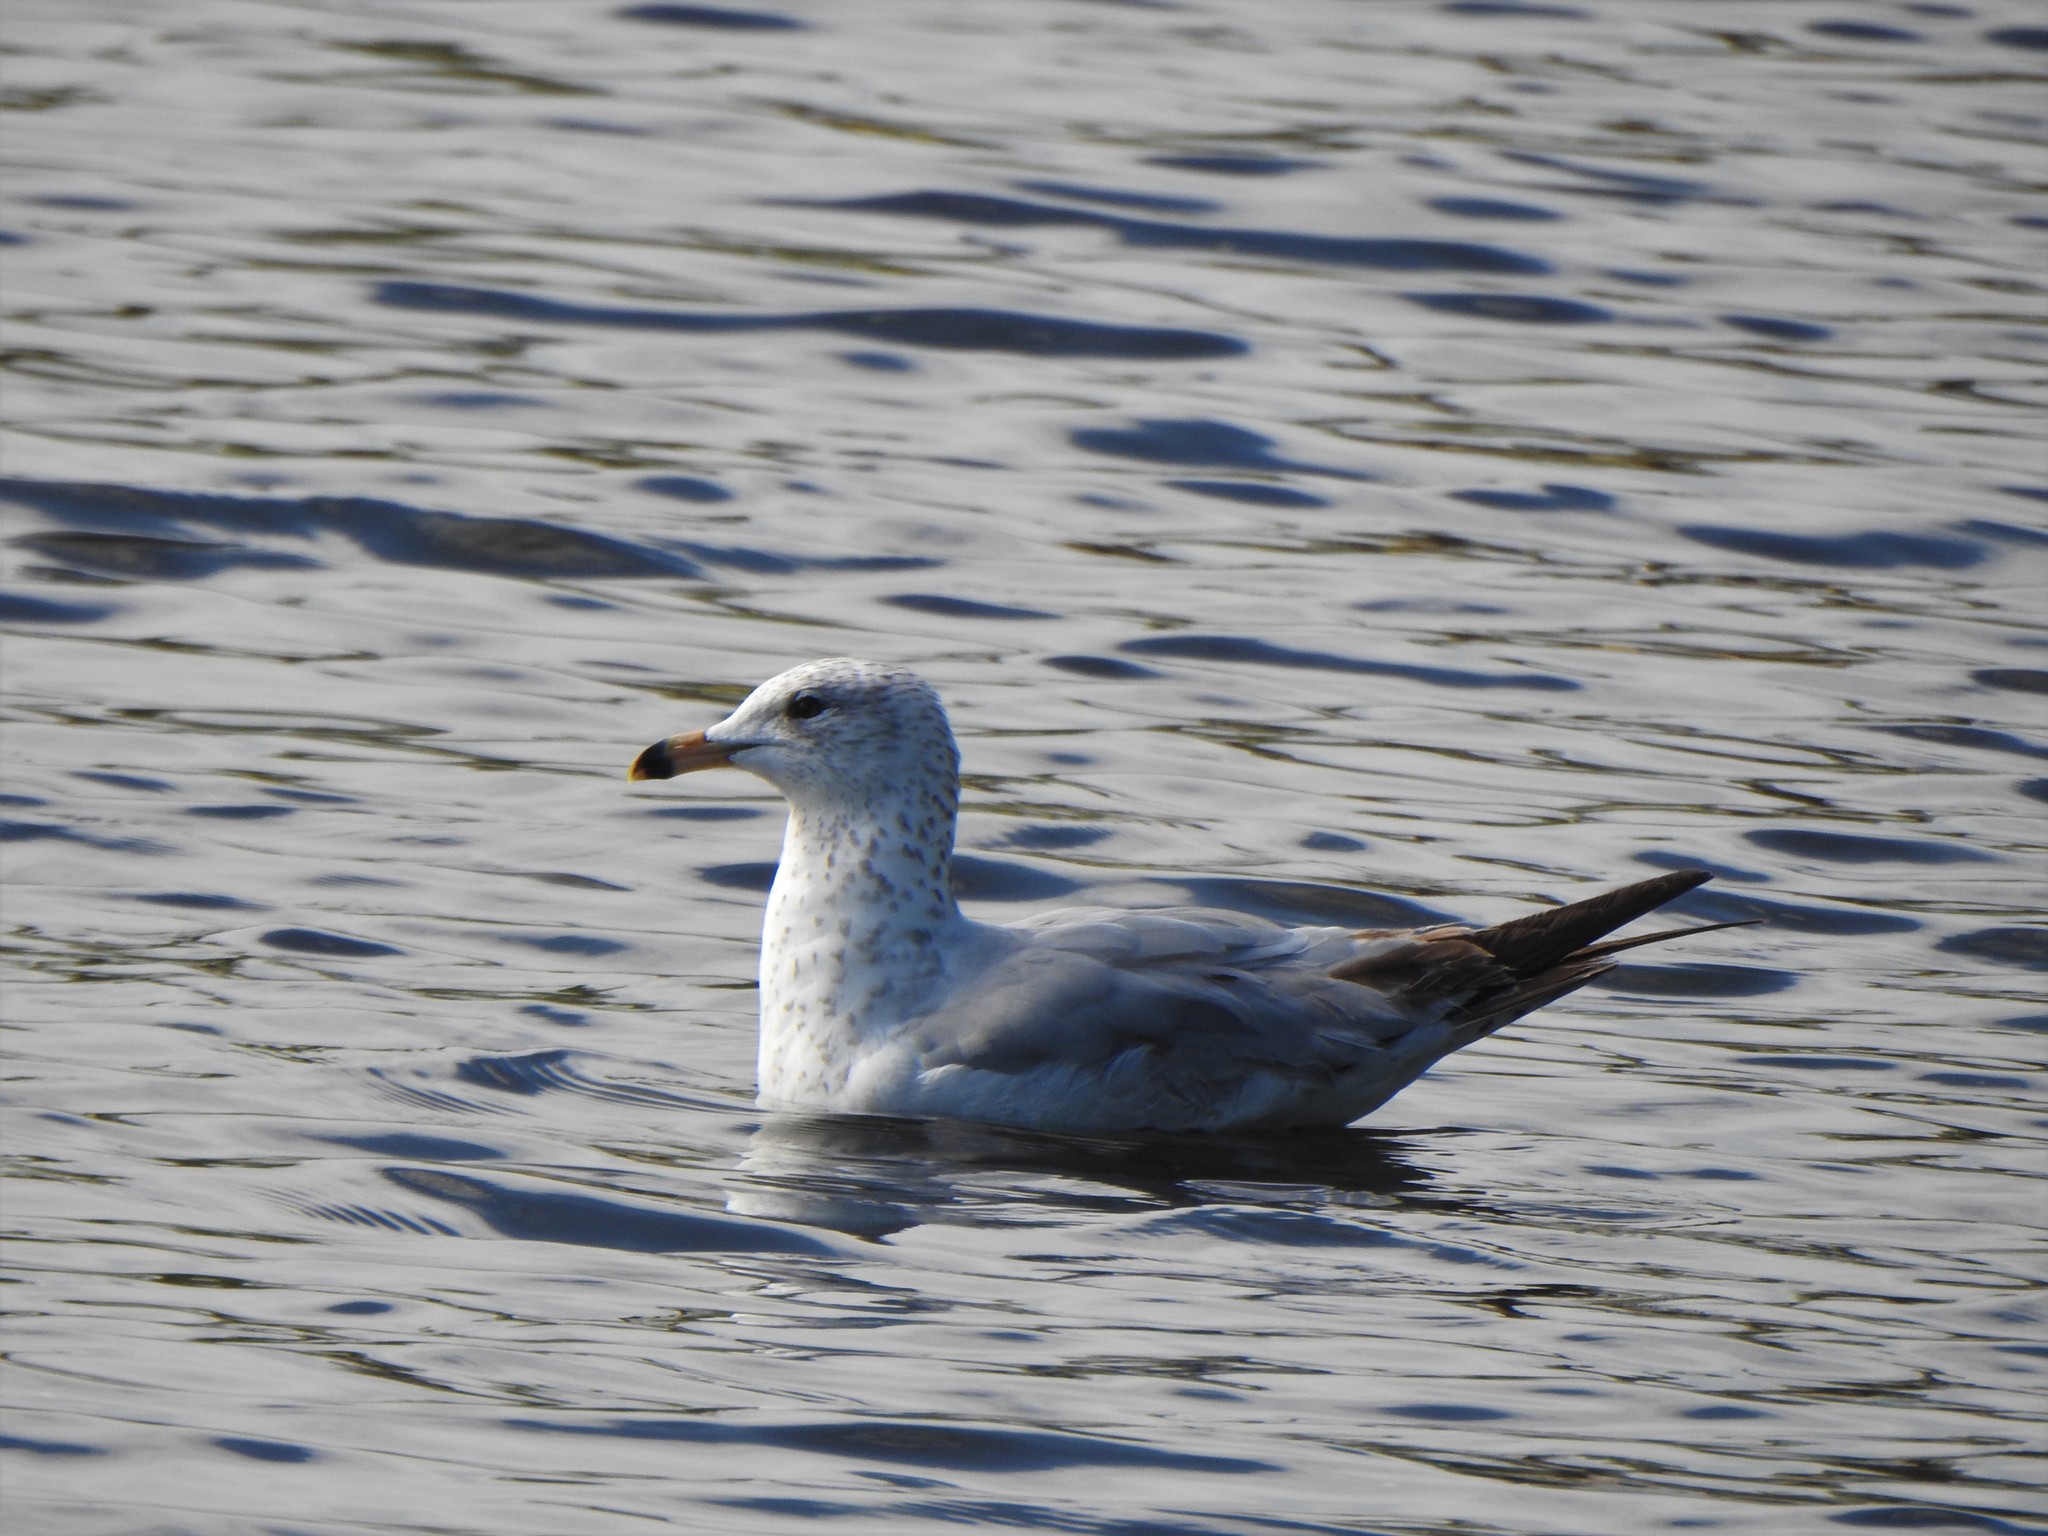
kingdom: Animalia
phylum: Chordata
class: Aves
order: Charadriiformes
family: Laridae
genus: Larus
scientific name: Larus delawarensis
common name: Ring-billed gull
